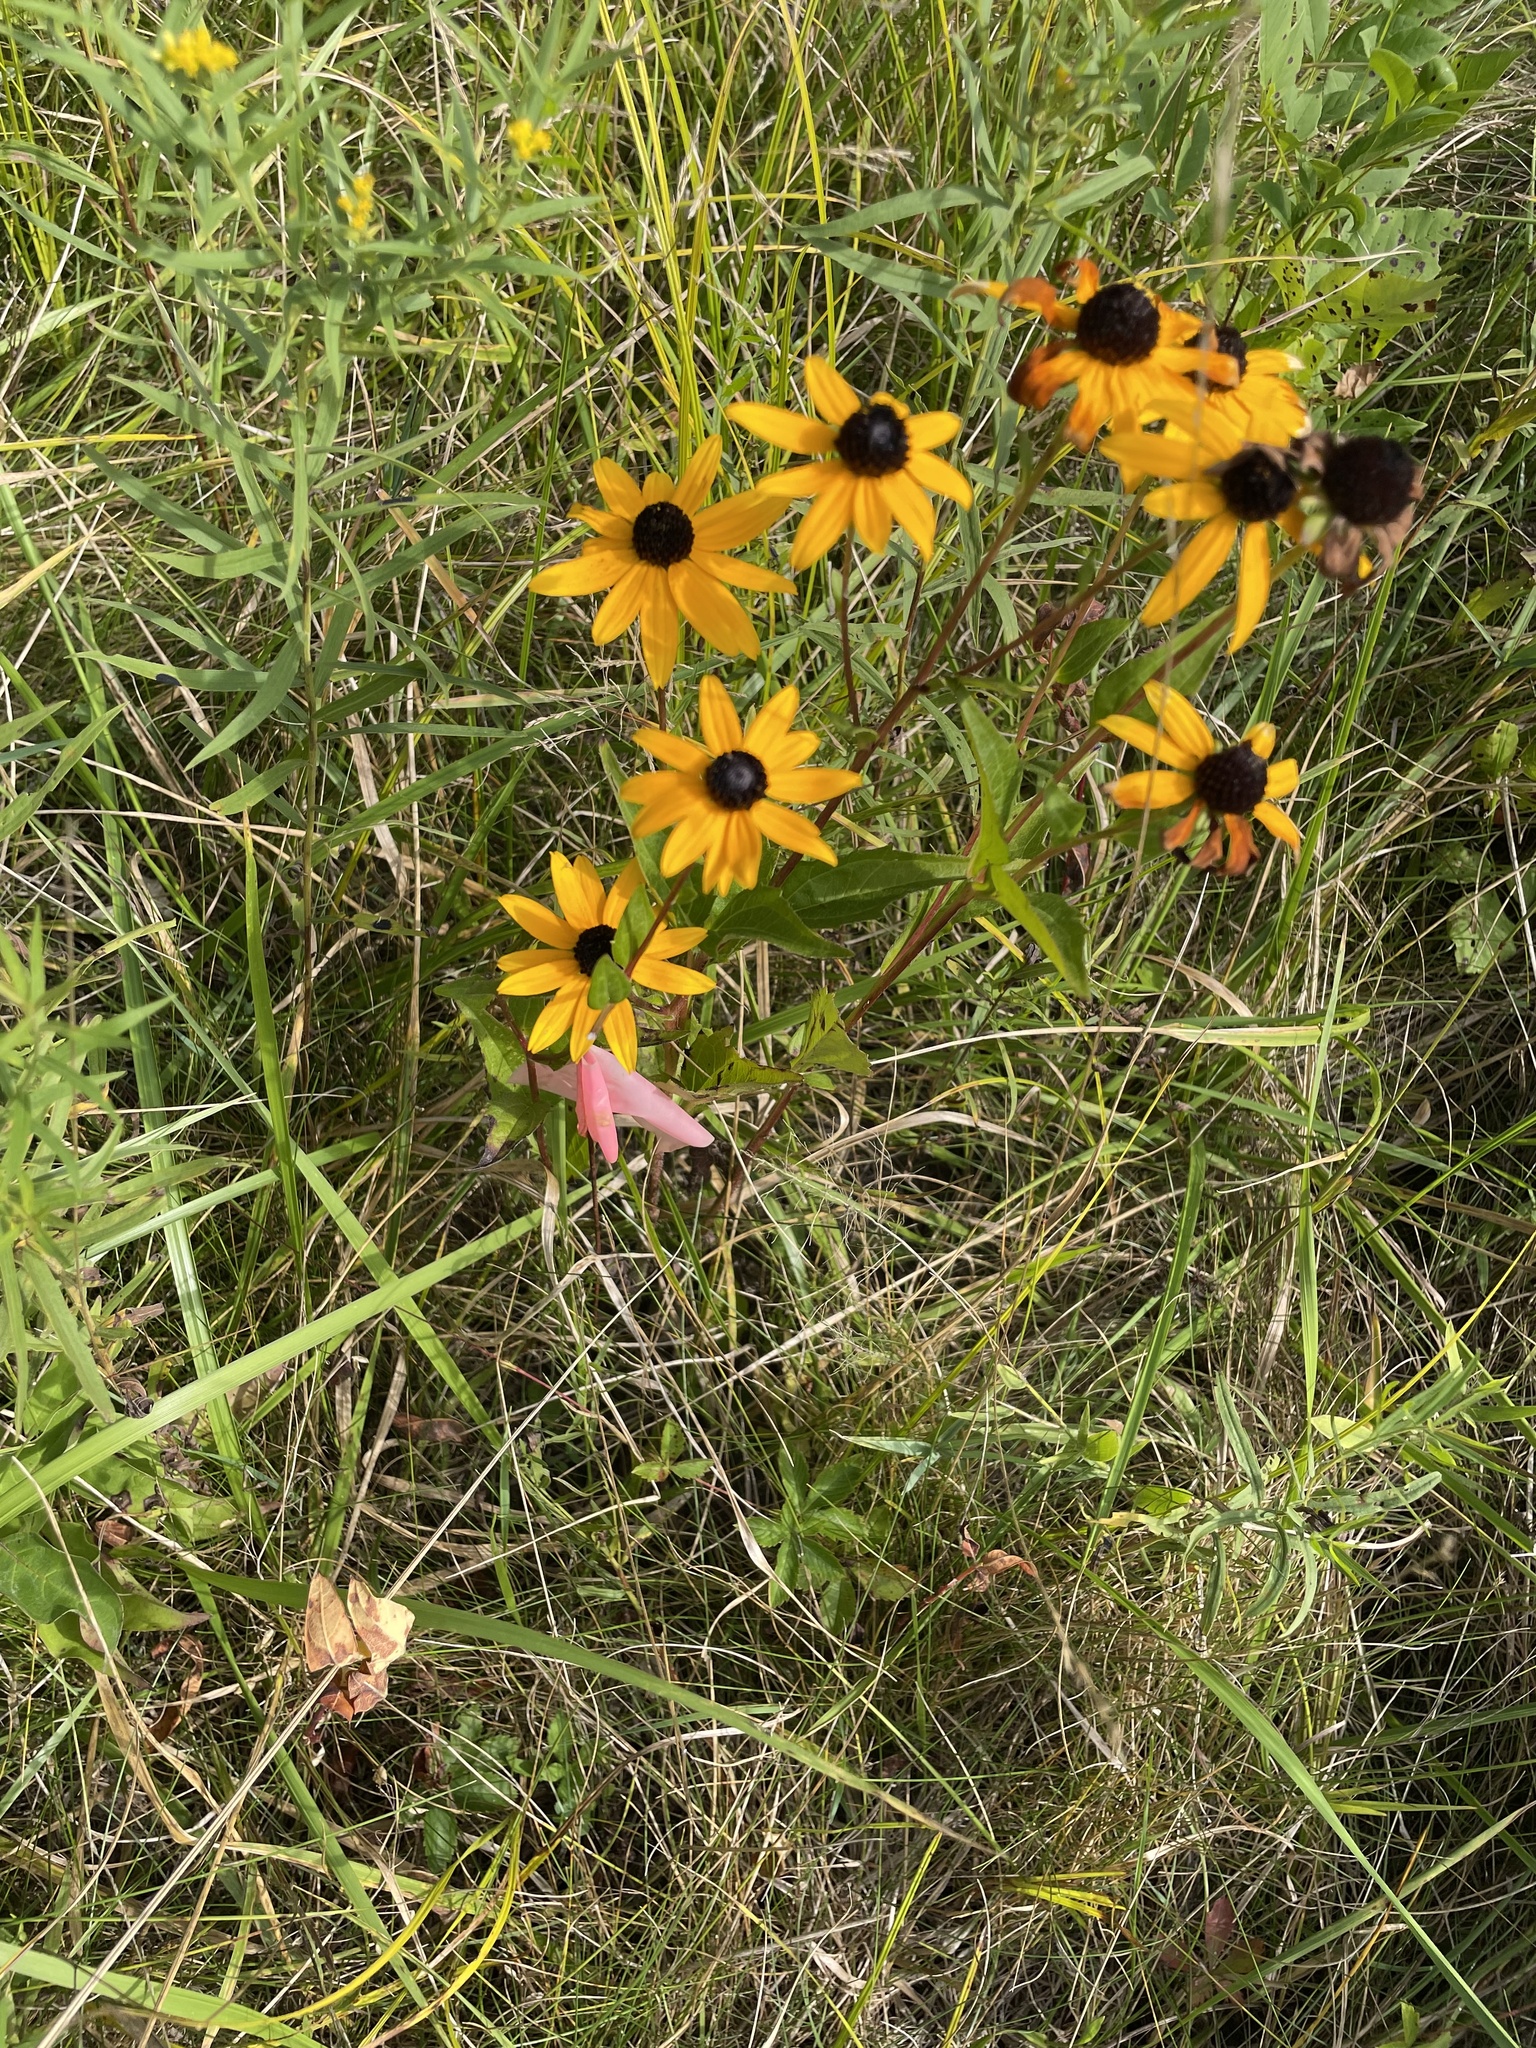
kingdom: Plantae
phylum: Tracheophyta
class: Magnoliopsida
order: Asterales
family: Asteraceae
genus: Rudbeckia
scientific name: Rudbeckia hirta
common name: Black-eyed-susan
